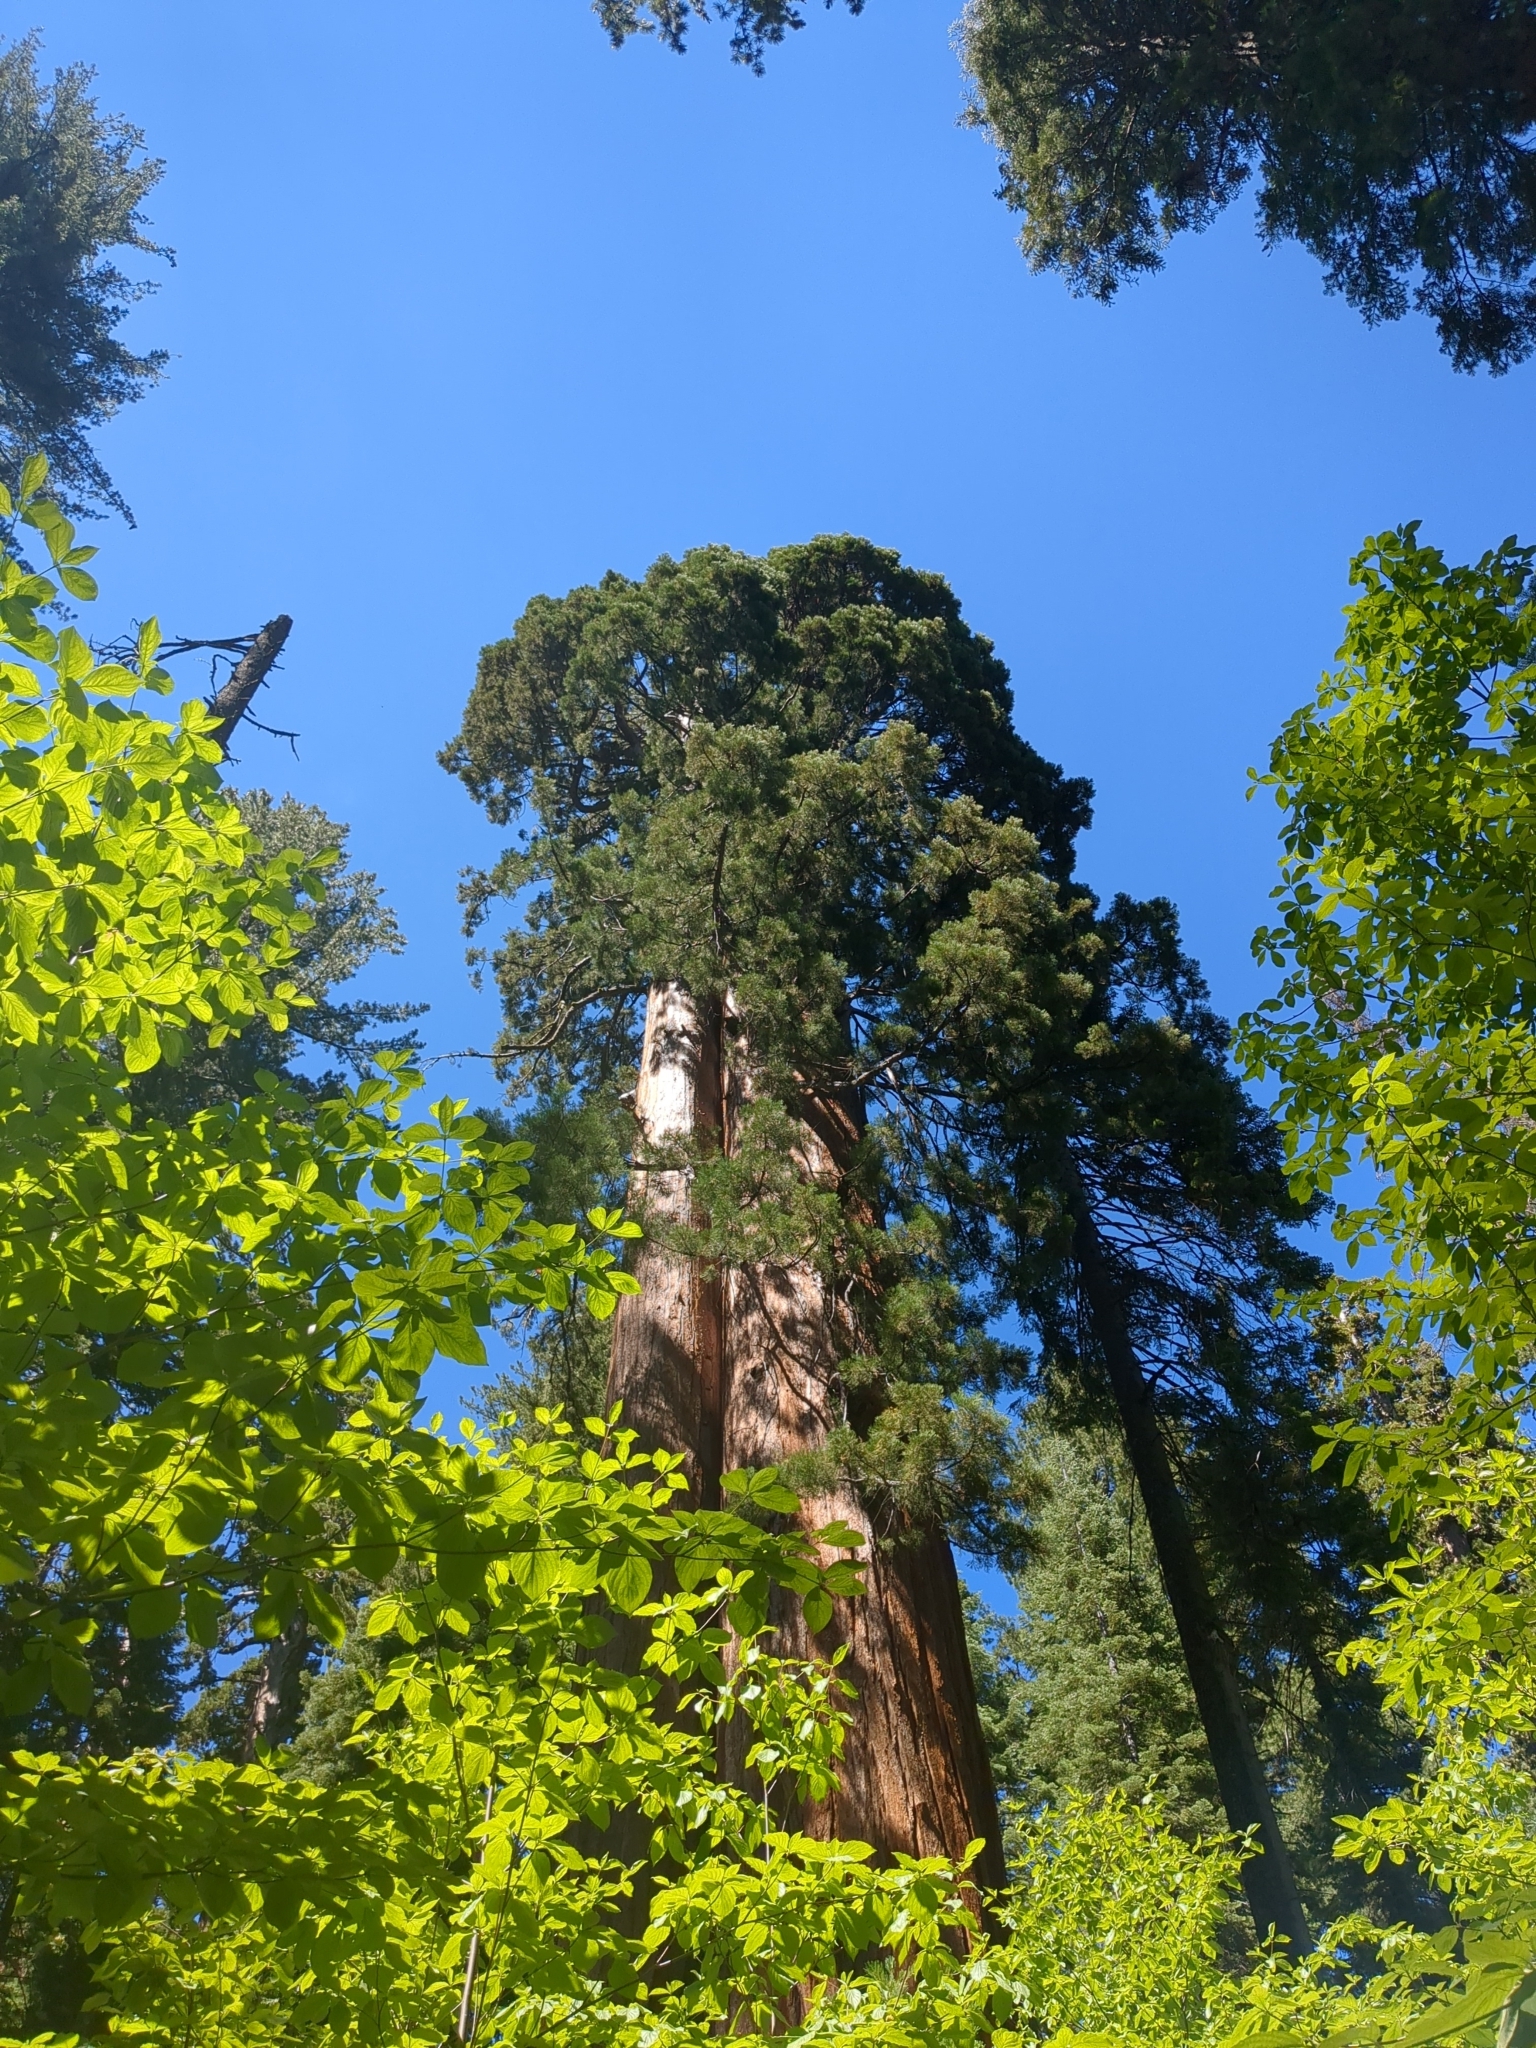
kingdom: Plantae
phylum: Tracheophyta
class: Pinopsida
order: Pinales
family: Cupressaceae
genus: Sequoiadendron
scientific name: Sequoiadendron giganteum
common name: Wellingtonia
